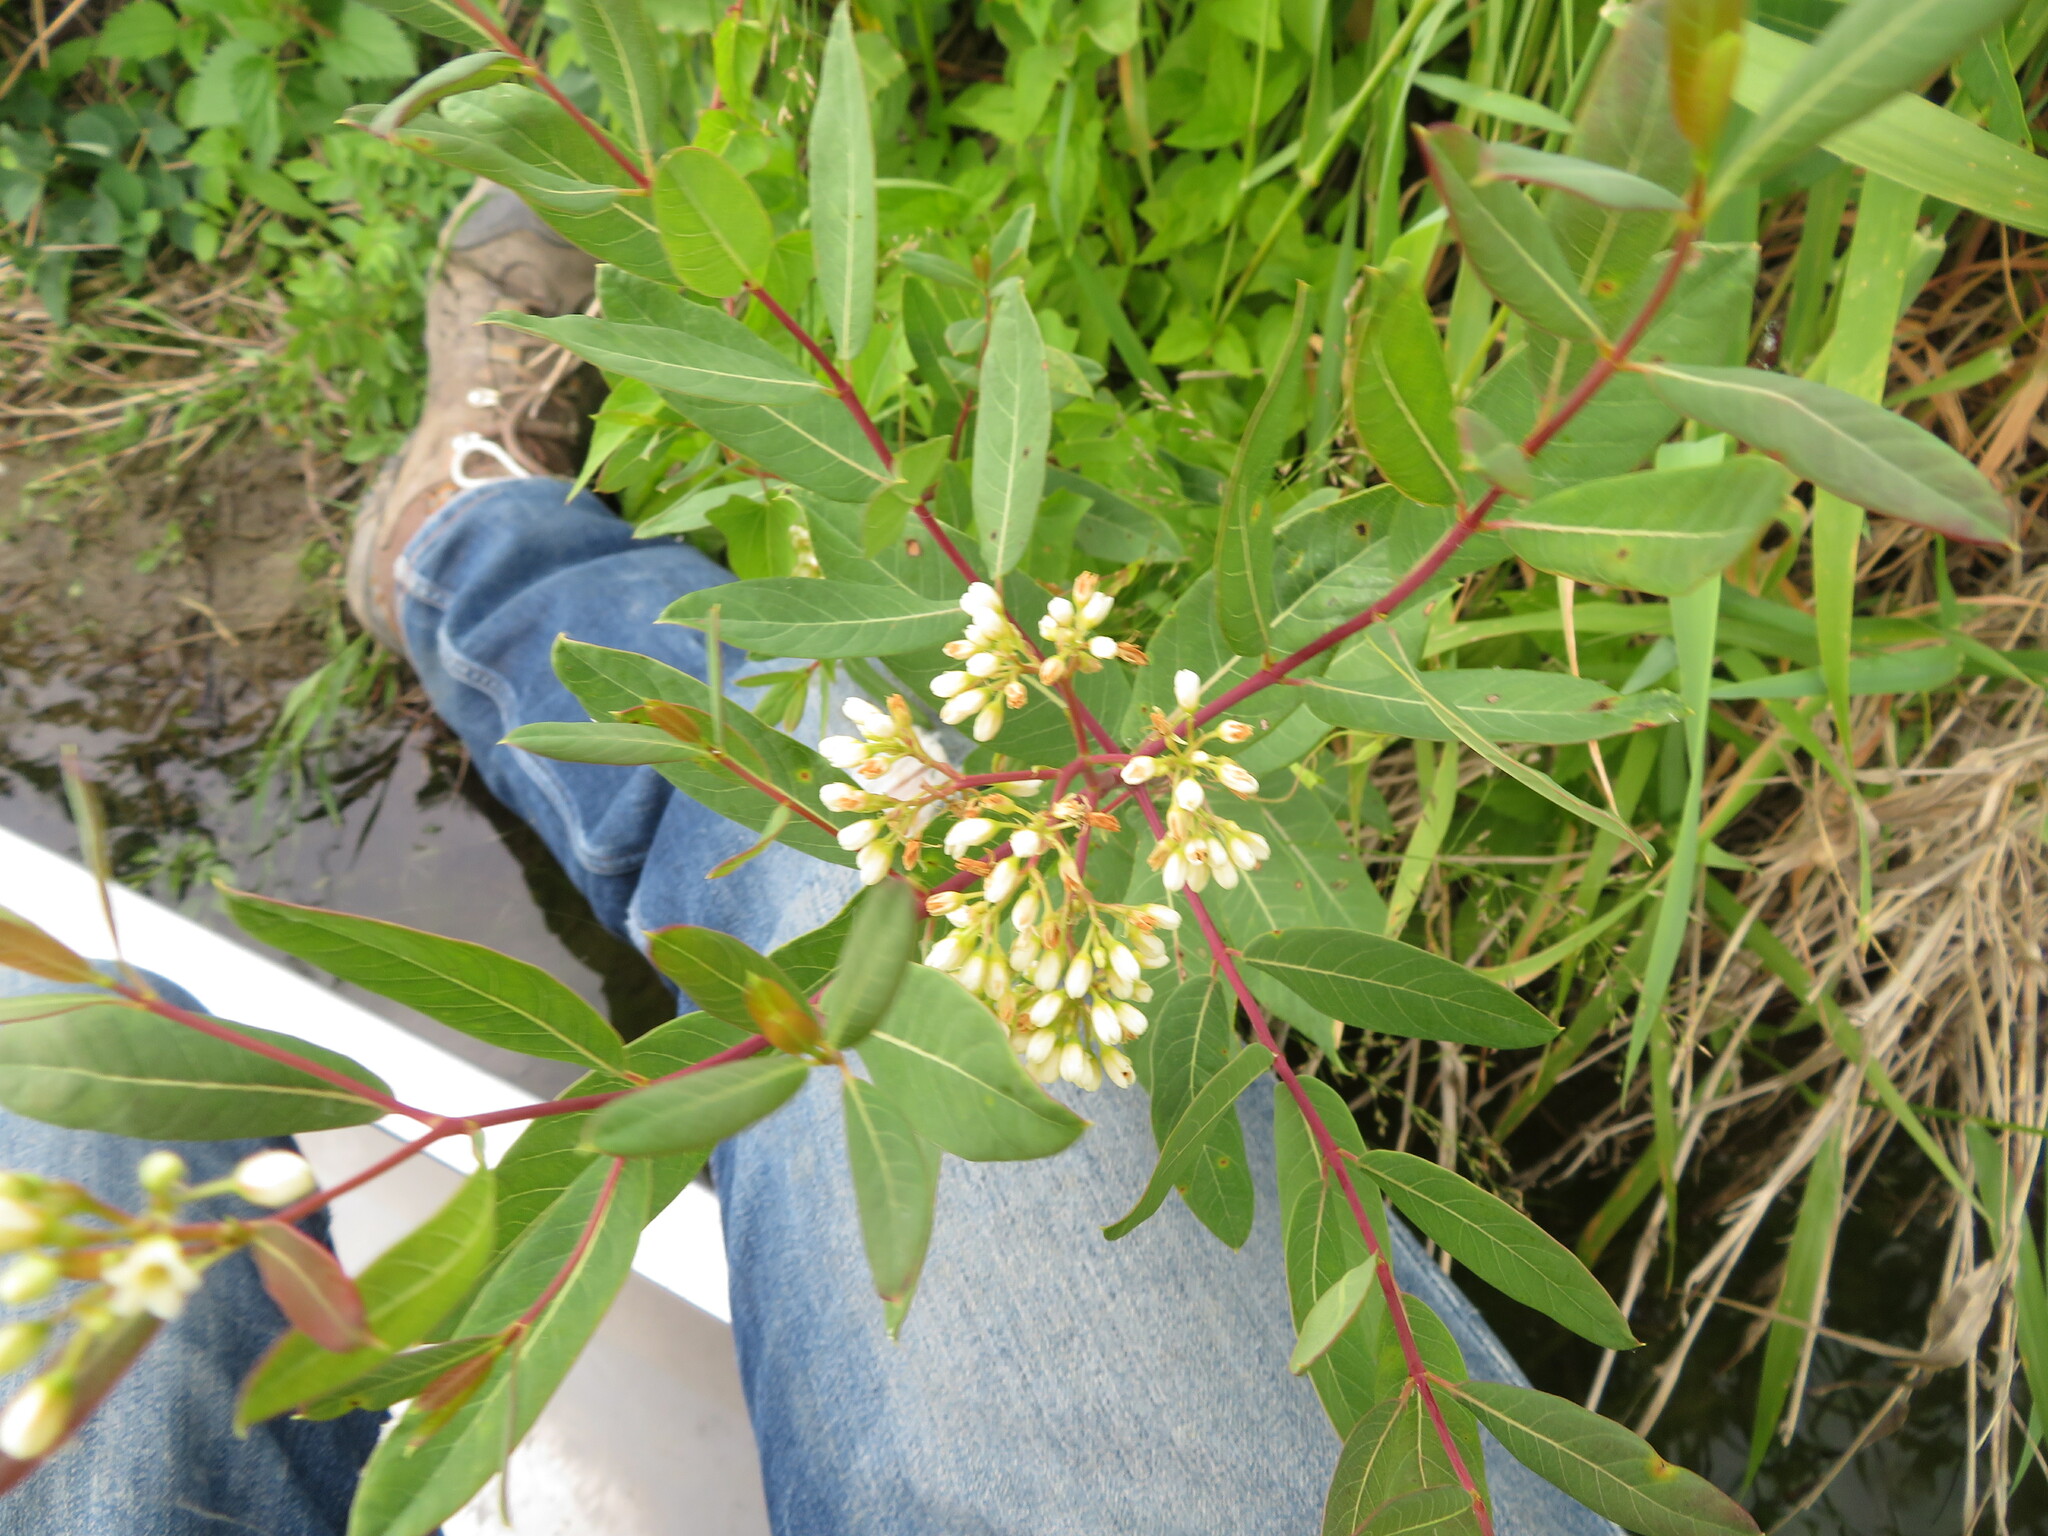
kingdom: Plantae
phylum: Tracheophyta
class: Magnoliopsida
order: Gentianales
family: Apocynaceae
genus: Apocynum
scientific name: Apocynum cannabinum
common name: Hemp dogbane
